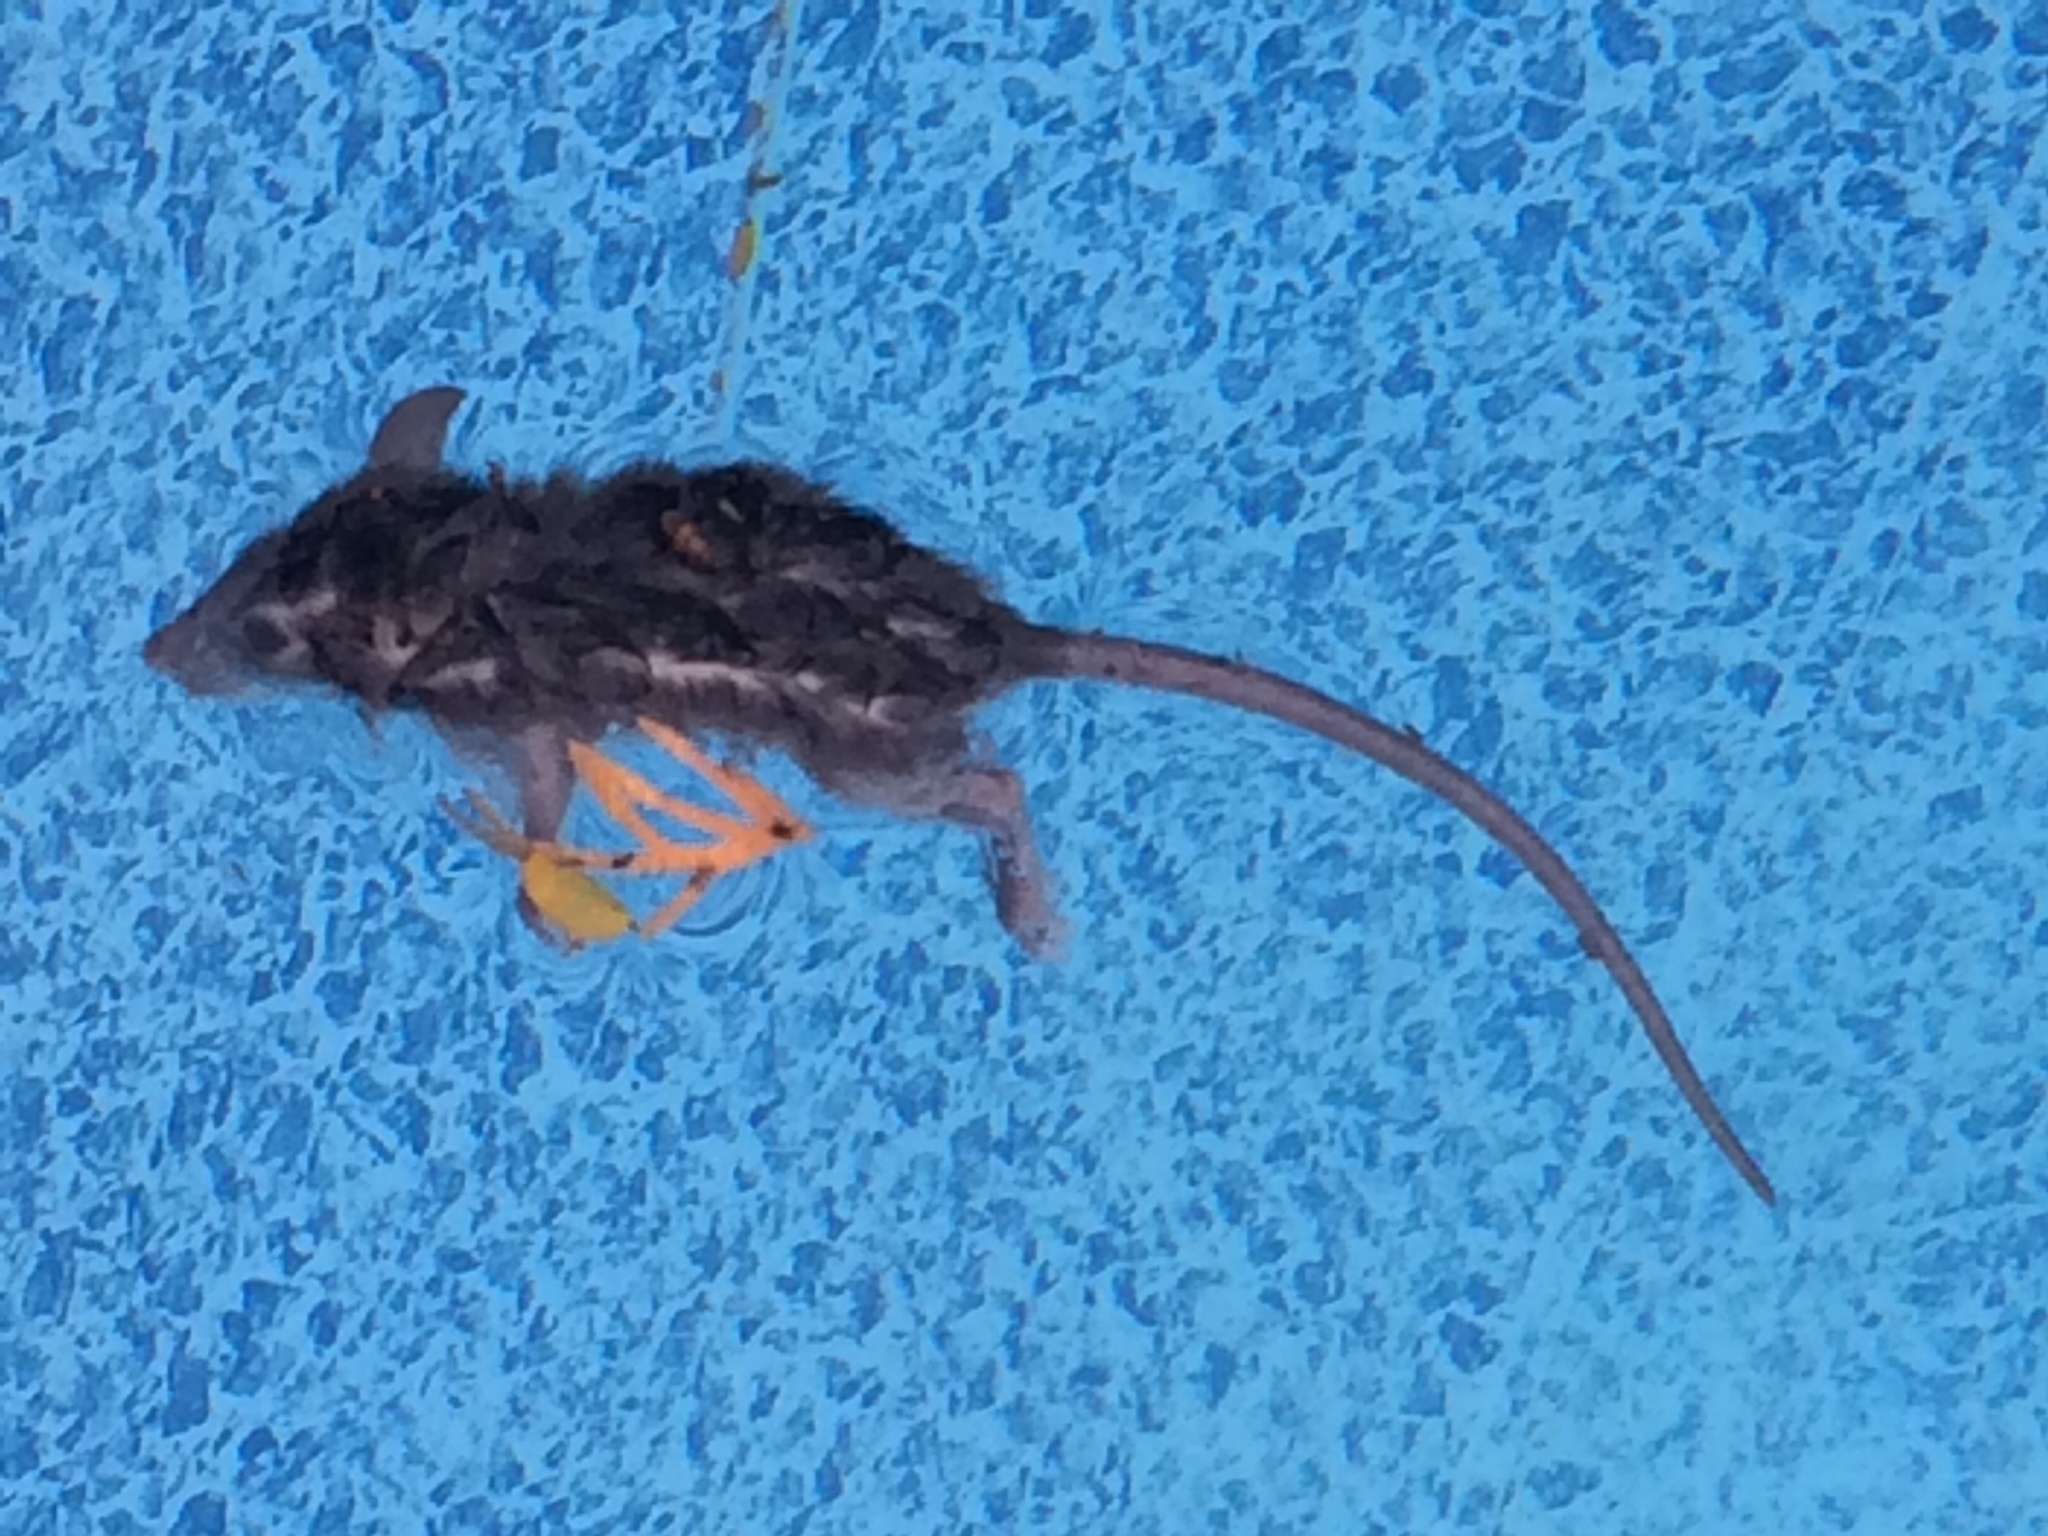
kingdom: Animalia
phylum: Chordata
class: Mammalia
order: Rodentia
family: Muridae
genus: Rattus
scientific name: Rattus rattus
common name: Black rat
